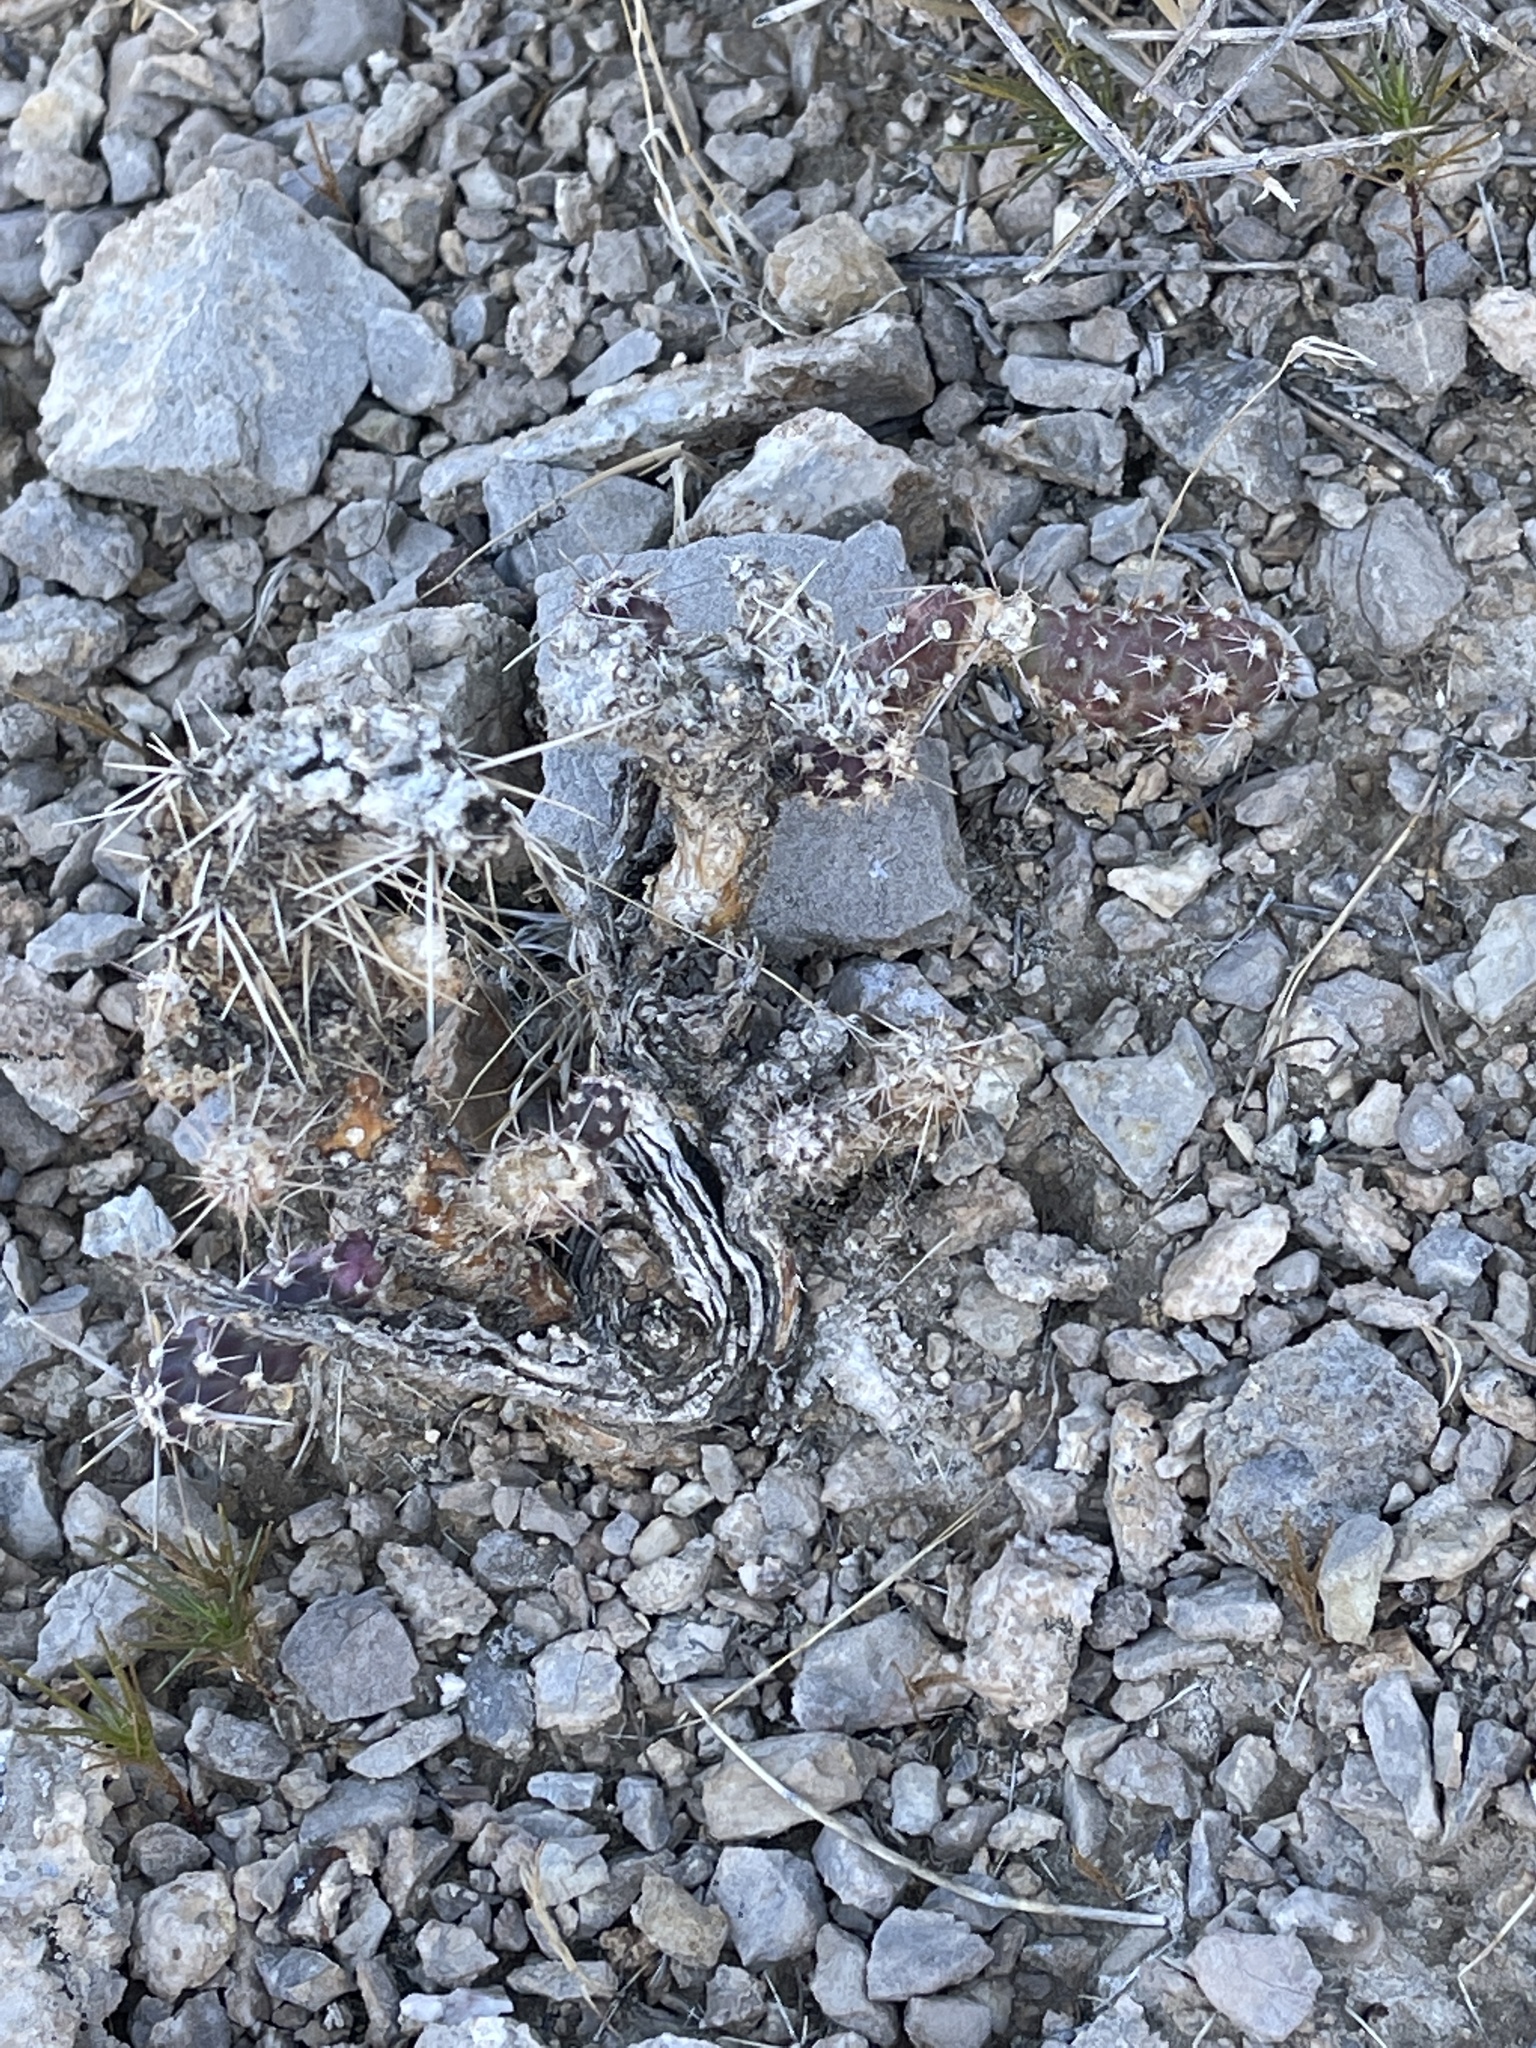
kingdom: Plantae
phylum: Tracheophyta
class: Magnoliopsida
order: Caryophyllales
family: Cactaceae
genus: Cylindropuntia
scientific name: Cylindropuntia ramosissima
